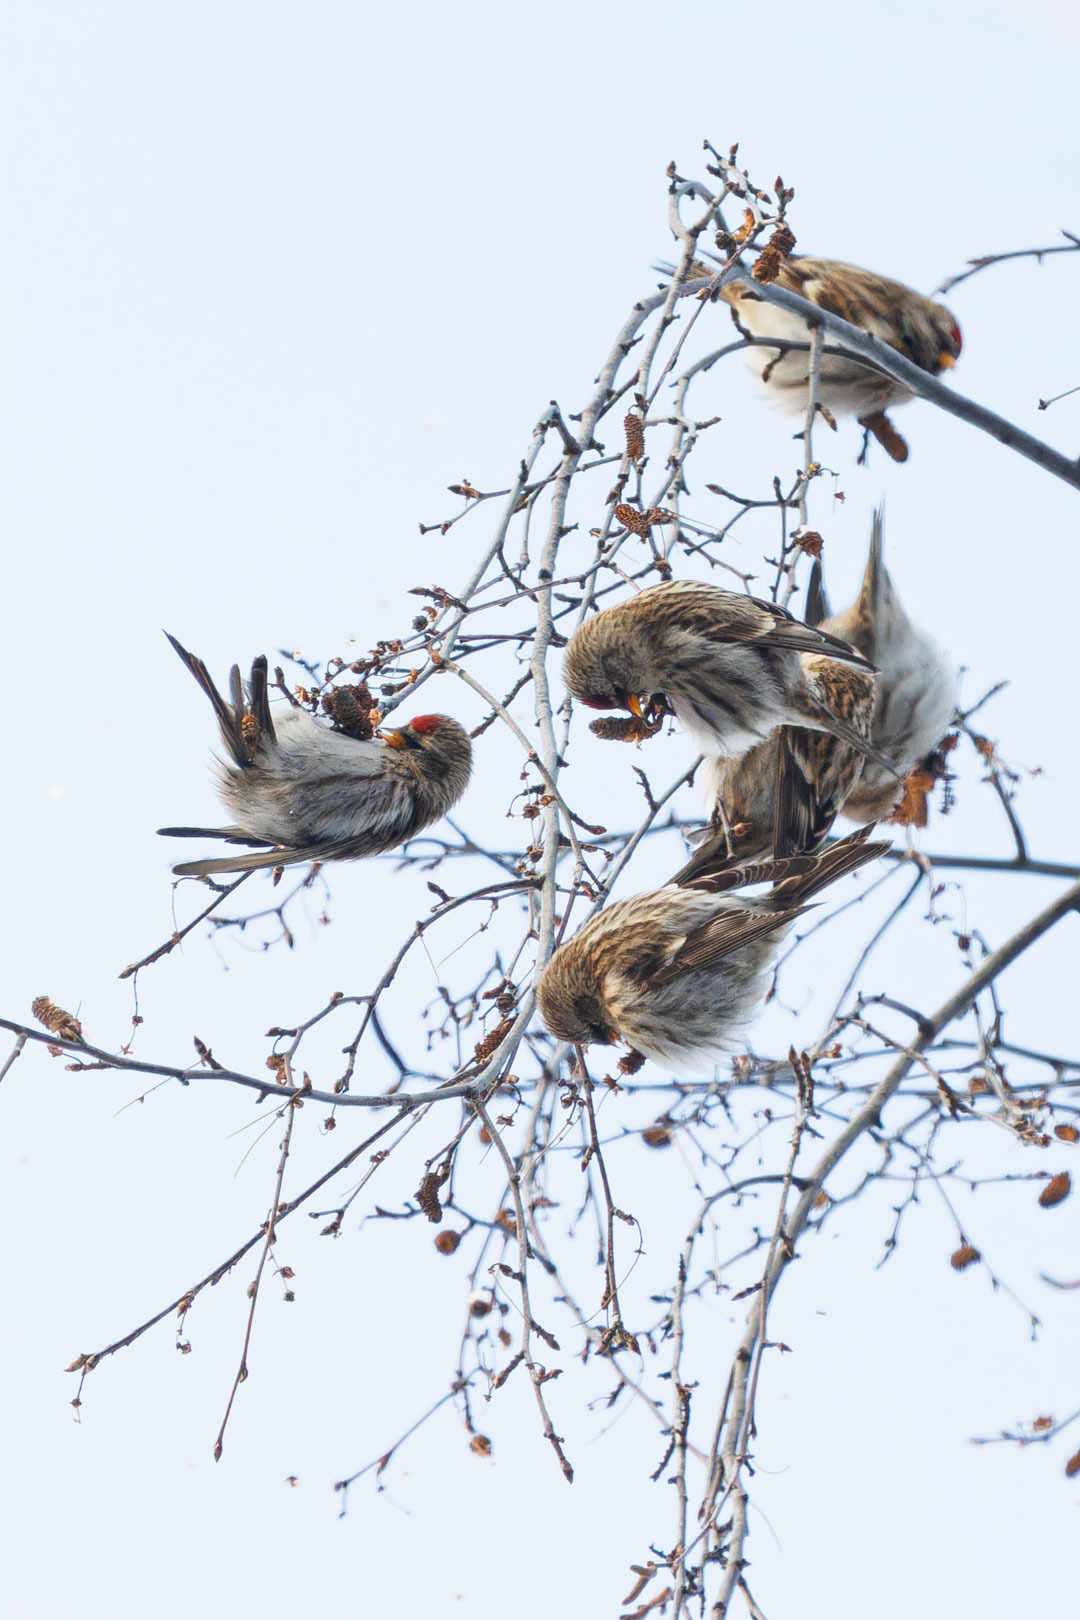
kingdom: Animalia
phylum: Chordata
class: Aves
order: Passeriformes
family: Fringillidae
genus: Acanthis
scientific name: Acanthis flammea
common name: Common redpoll
